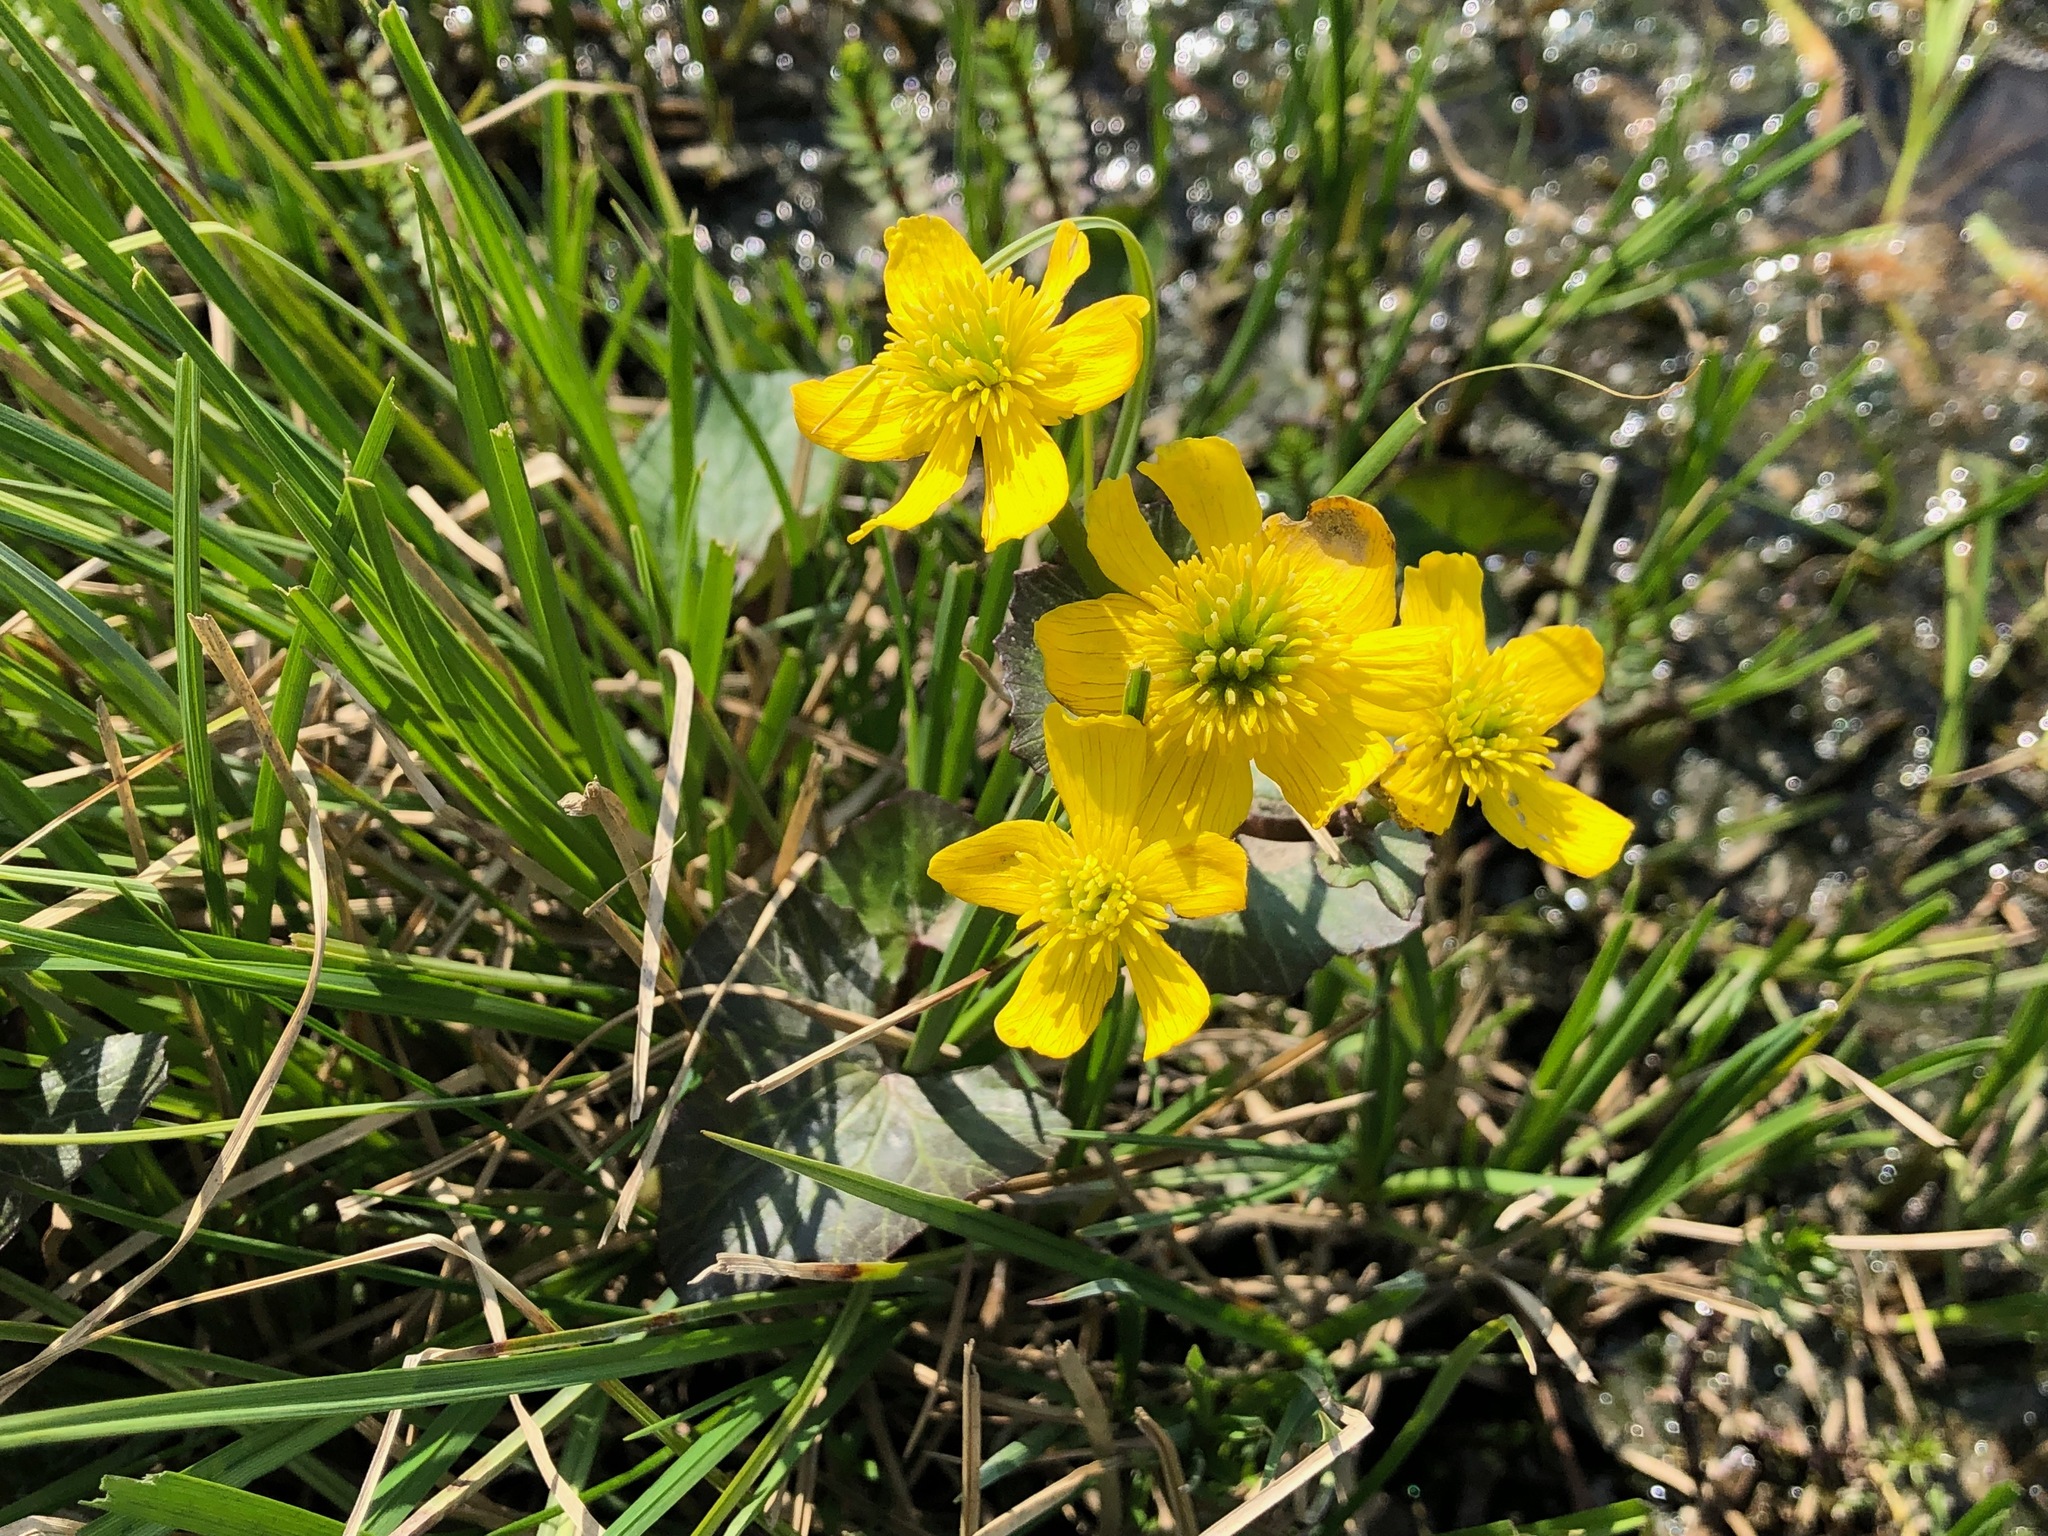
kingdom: Plantae
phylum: Tracheophyta
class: Magnoliopsida
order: Ranunculales
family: Ranunculaceae
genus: Caltha
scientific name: Caltha palustris
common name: Marsh marigold
